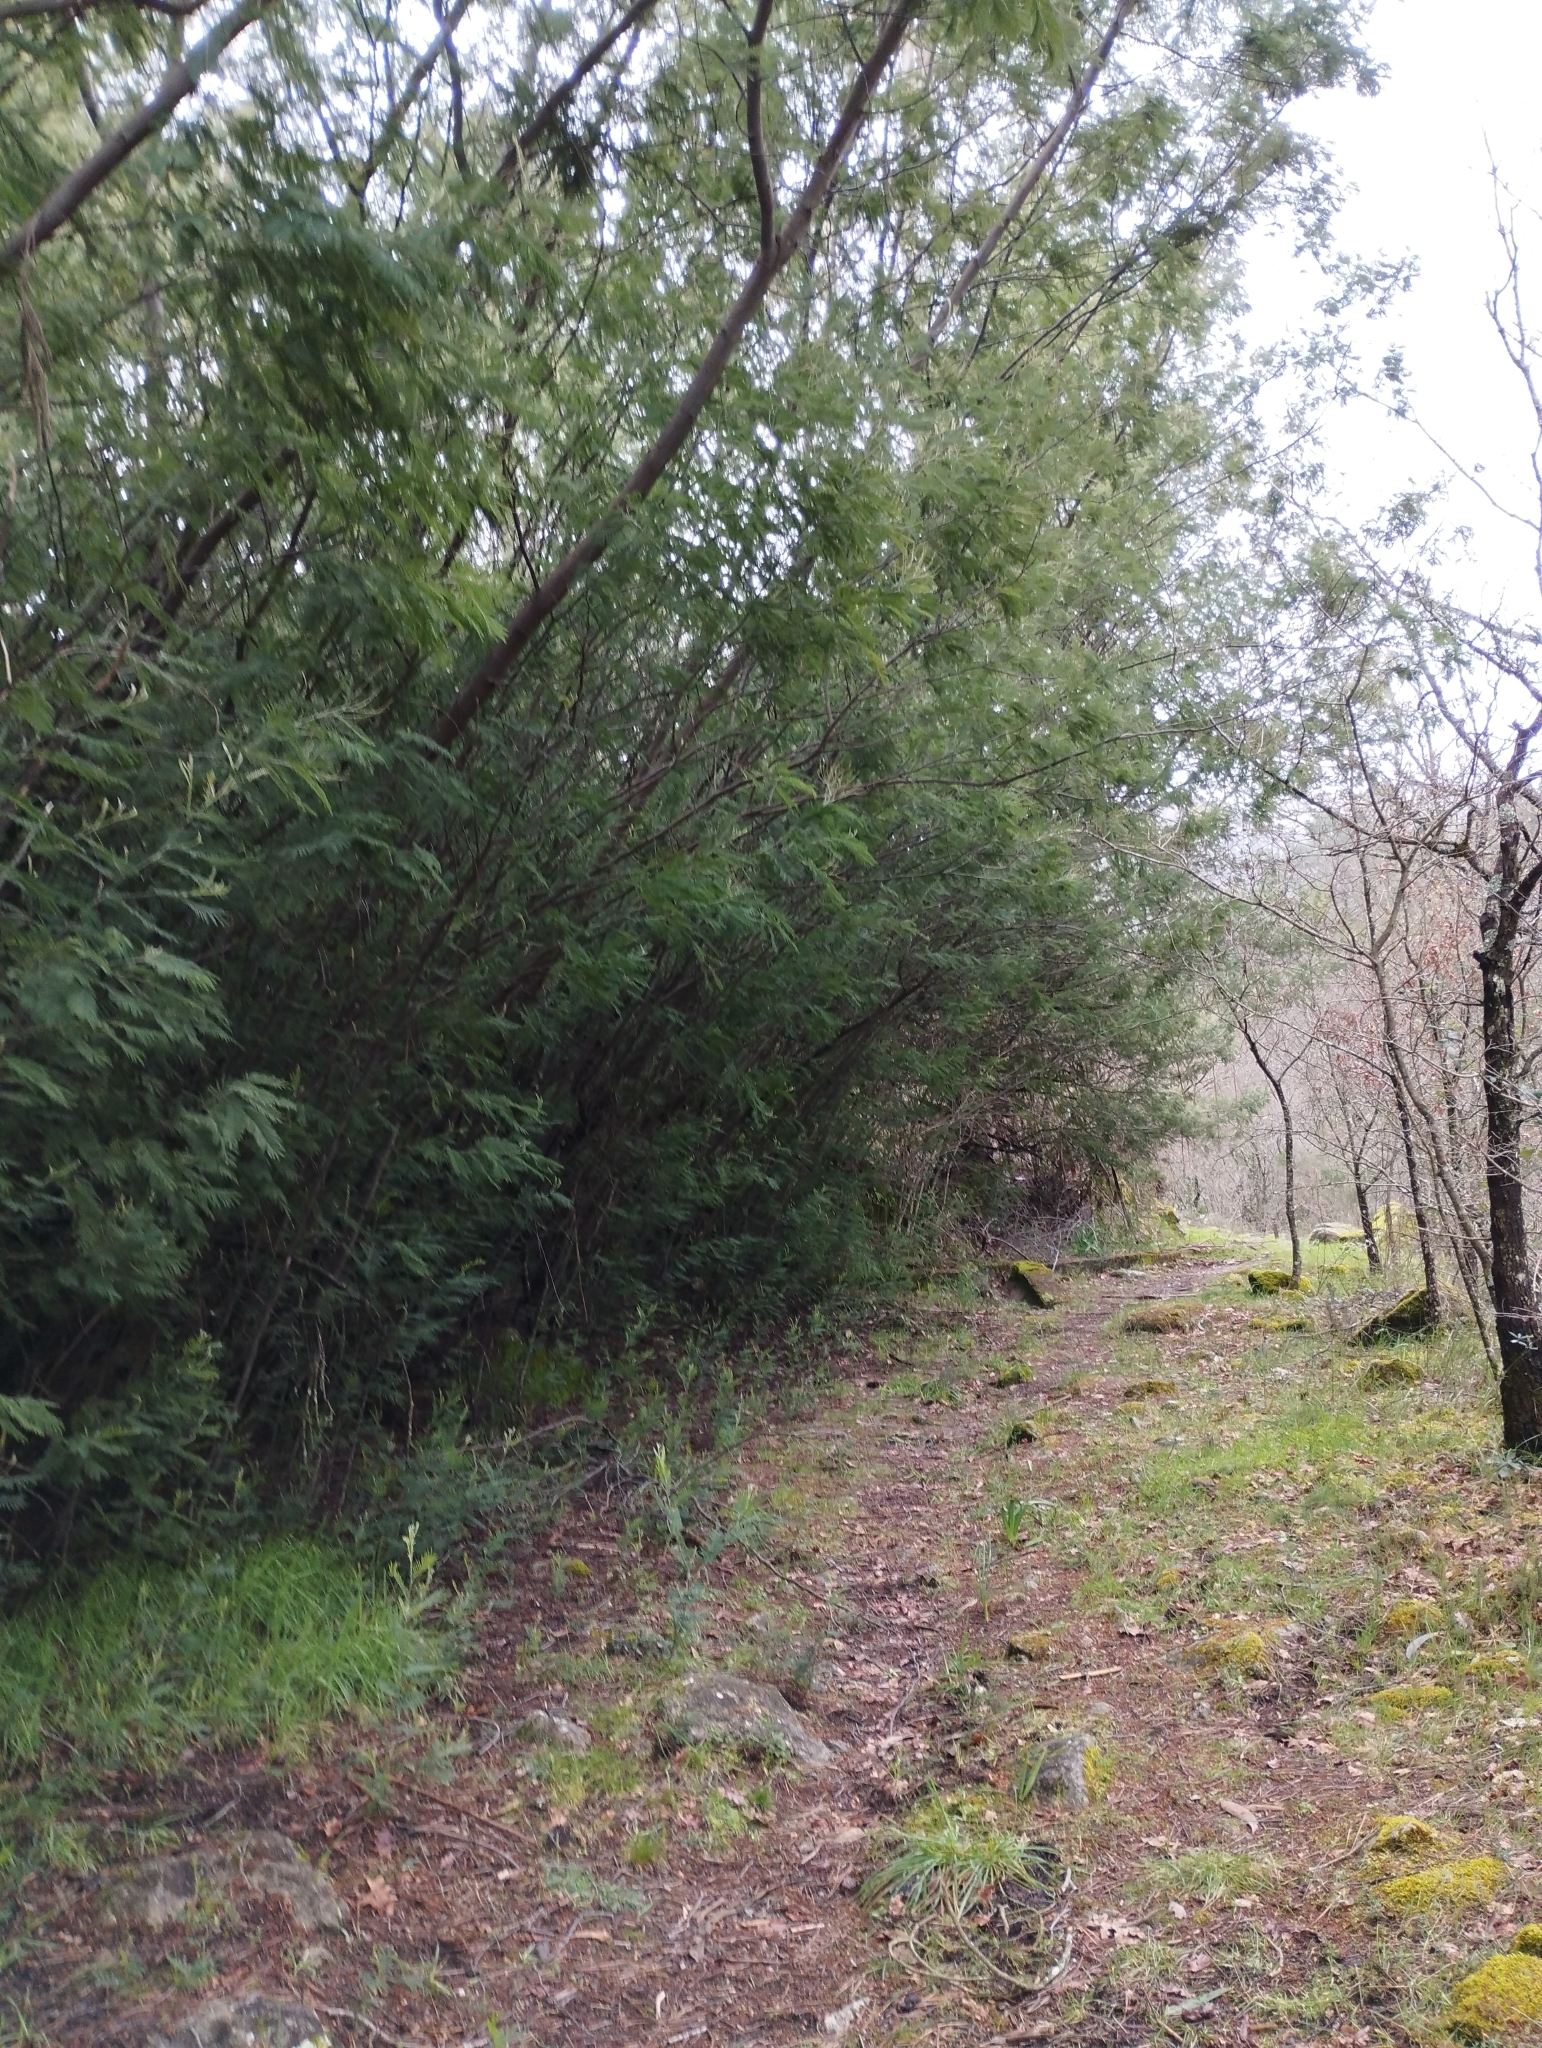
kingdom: Plantae
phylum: Tracheophyta
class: Magnoliopsida
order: Fabales
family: Fabaceae
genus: Acacia
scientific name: Acacia dealbata
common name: Silver wattle
